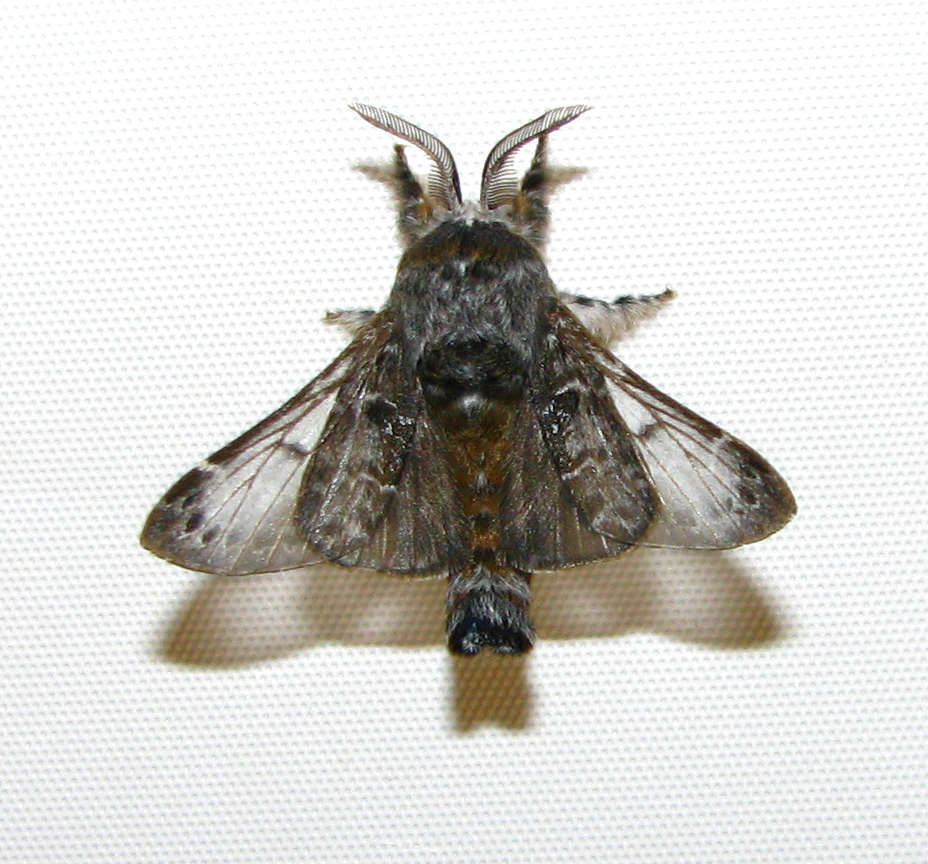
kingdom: Animalia
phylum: Arthropoda
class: Insecta
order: Lepidoptera
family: Lasiocampidae
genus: Genduara
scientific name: Genduara subnotata
